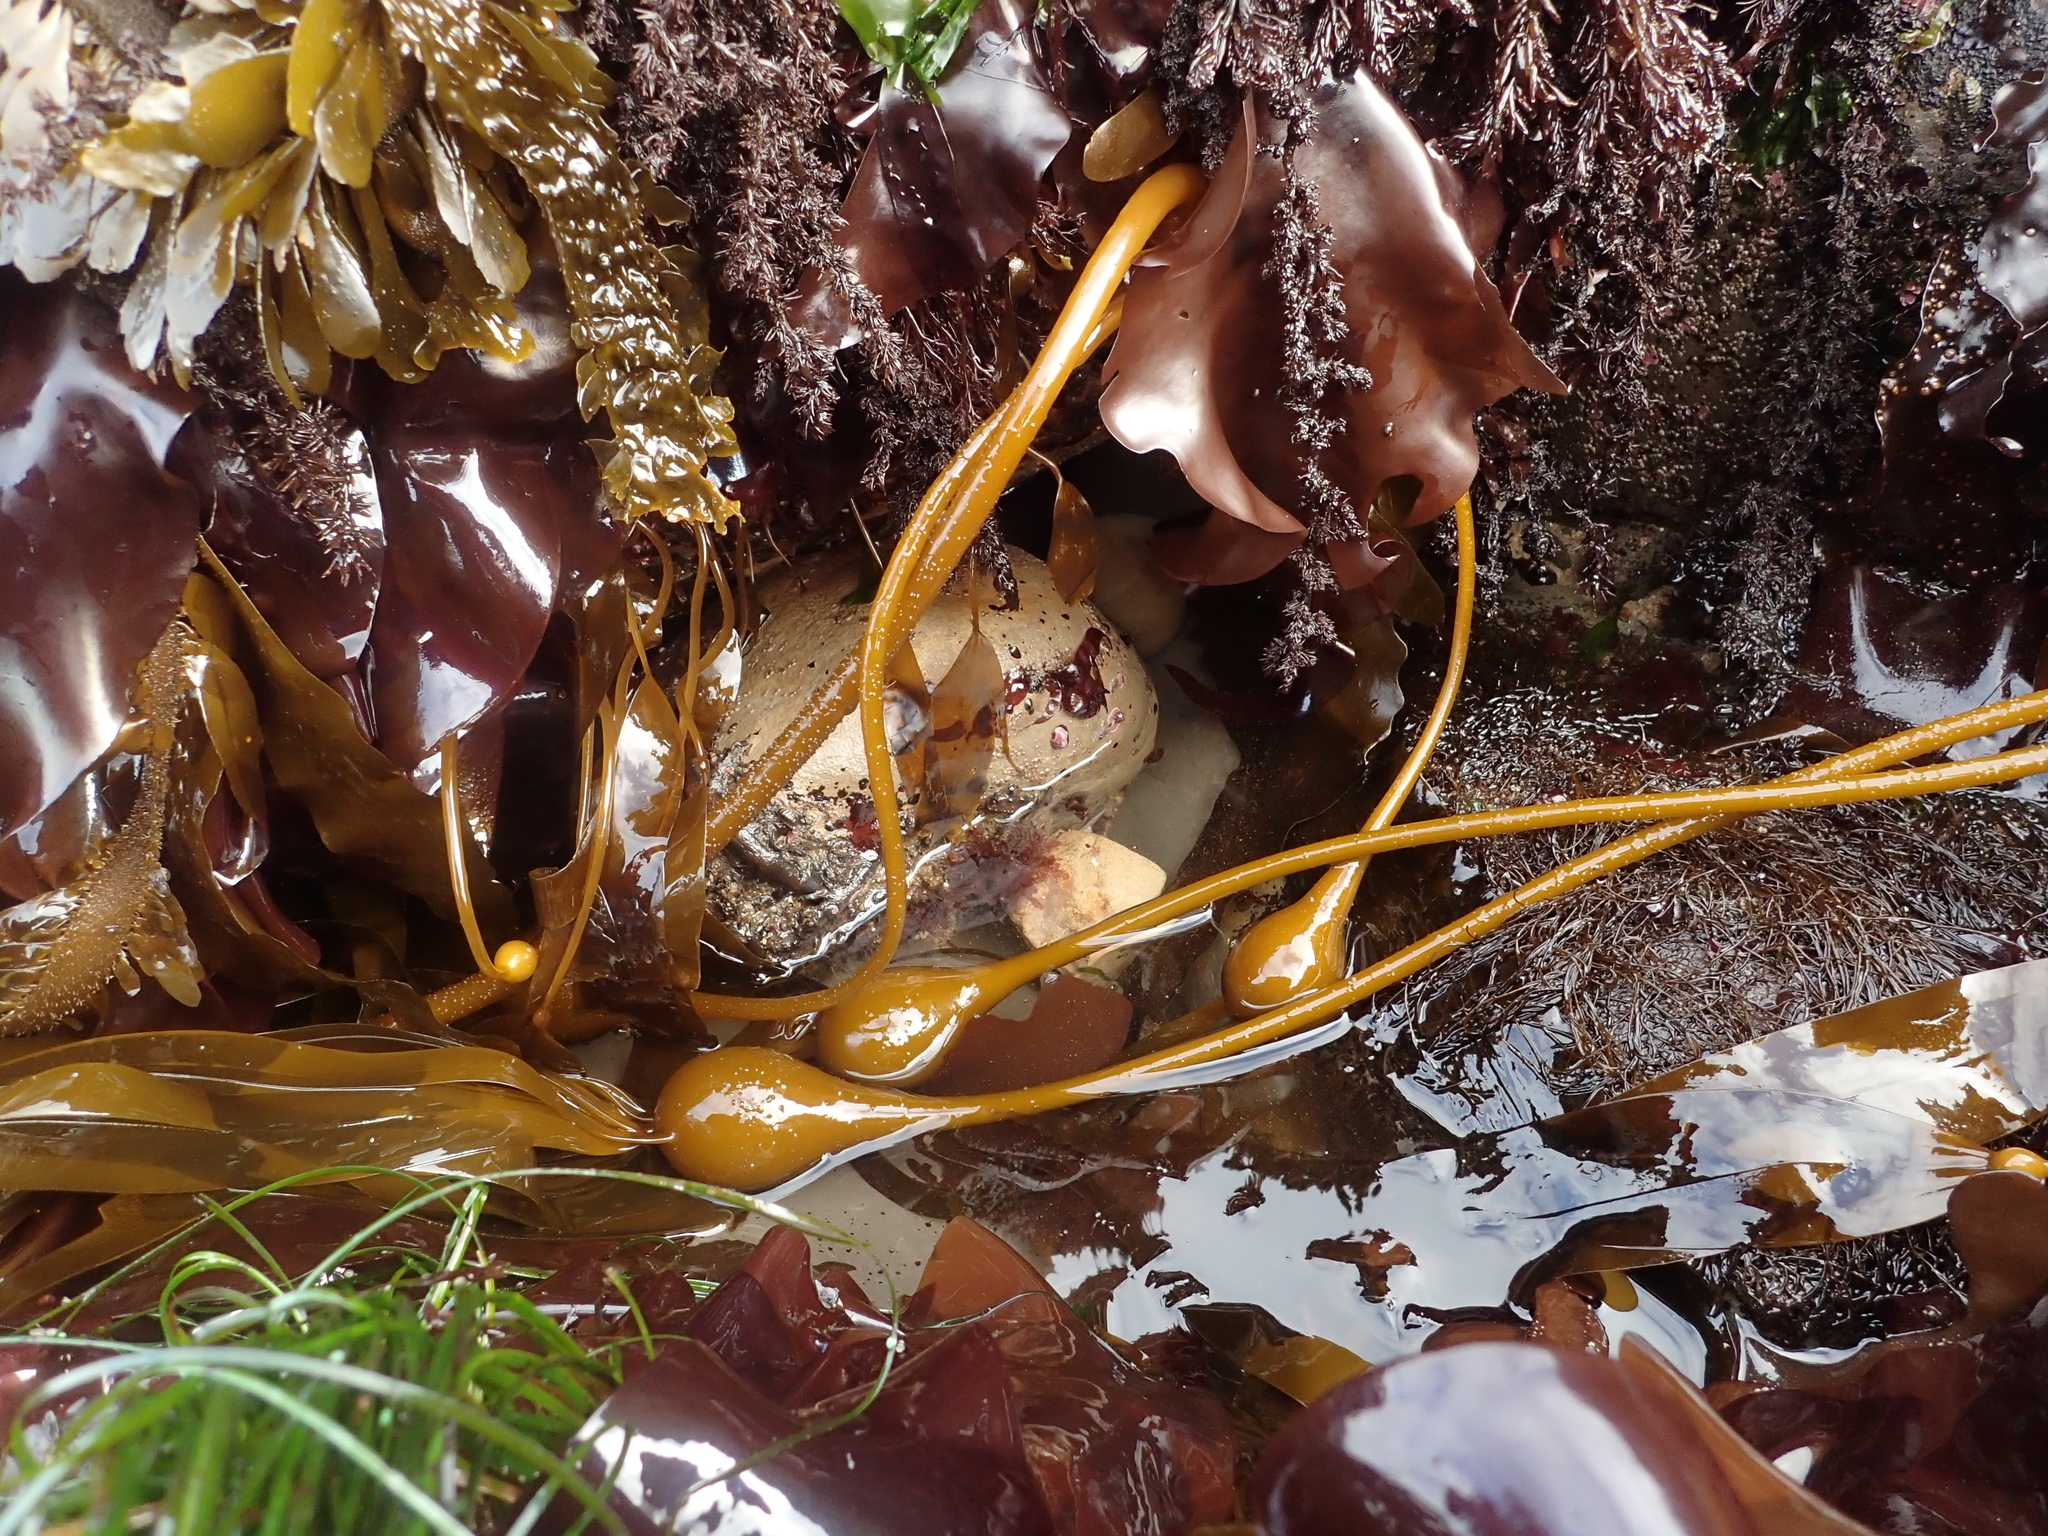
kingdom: Chromista
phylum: Ochrophyta
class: Phaeophyceae
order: Laminariales
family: Laminariaceae
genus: Nereocystis
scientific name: Nereocystis luetkeana
